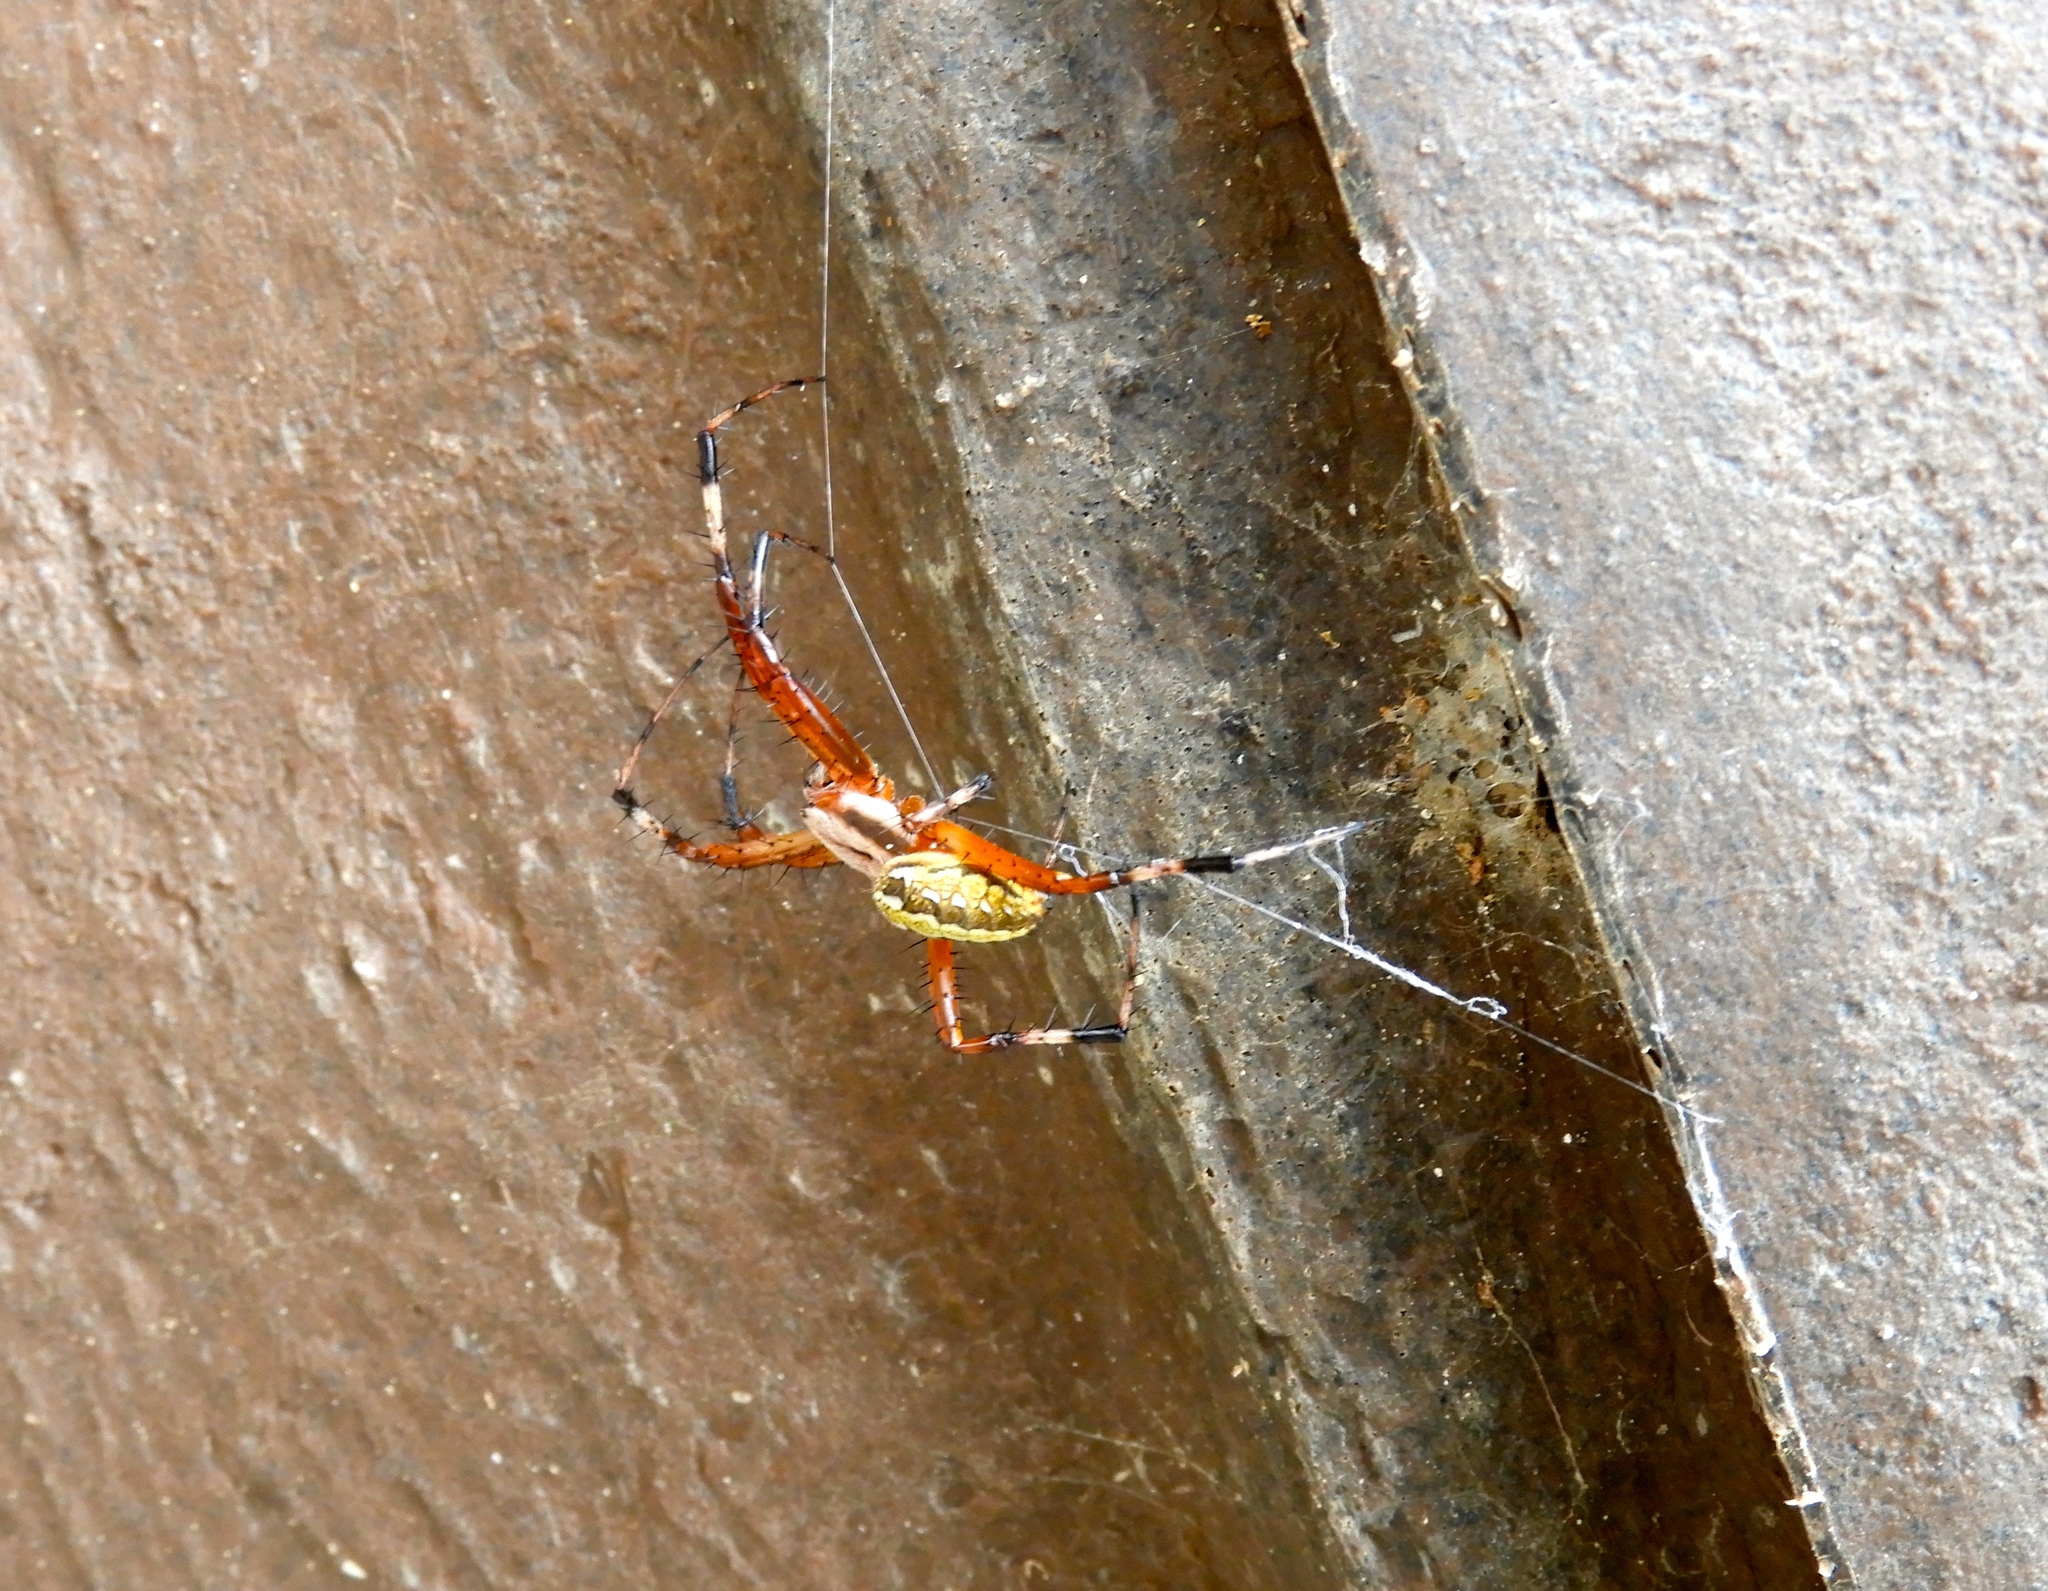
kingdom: Animalia
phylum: Arthropoda
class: Arachnida
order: Araneae
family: Araneidae
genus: Neoscona
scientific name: Neoscona
